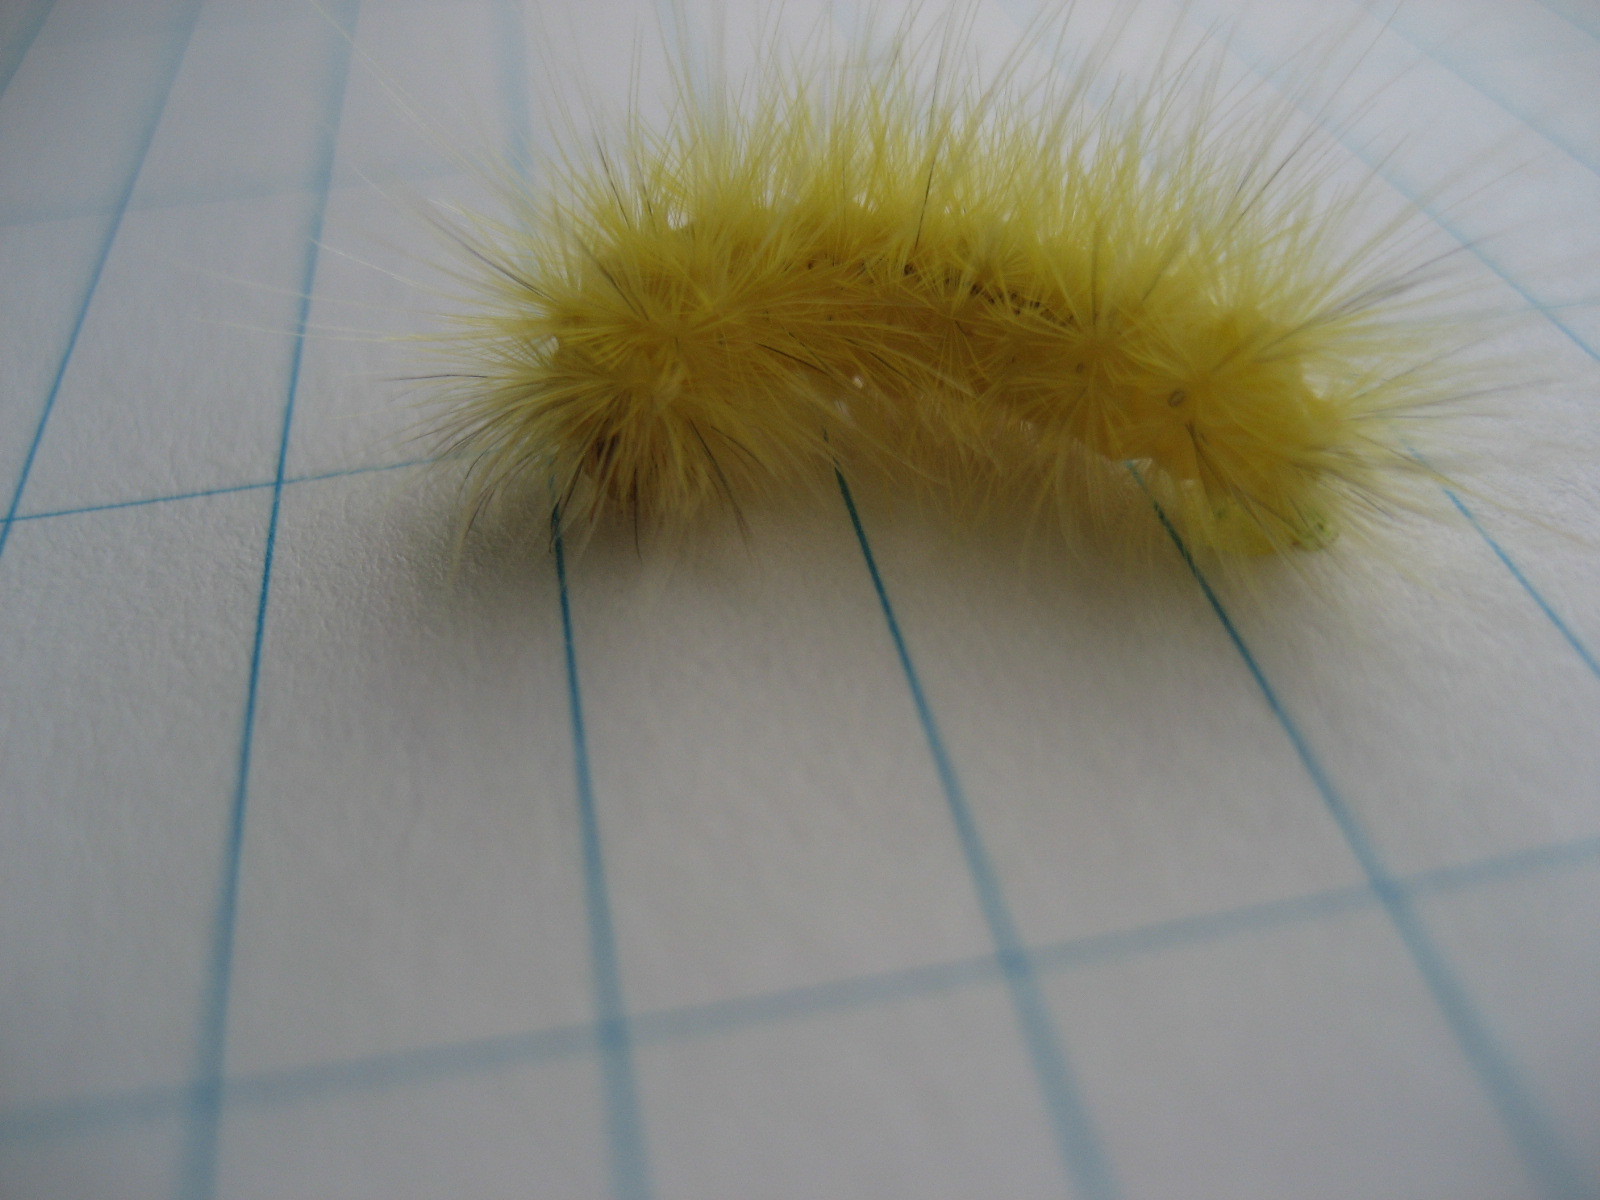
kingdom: Animalia
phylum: Arthropoda
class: Insecta
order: Lepidoptera
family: Erebidae
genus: Spilosoma
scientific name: Spilosoma virginica
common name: Virginia tiger moth
